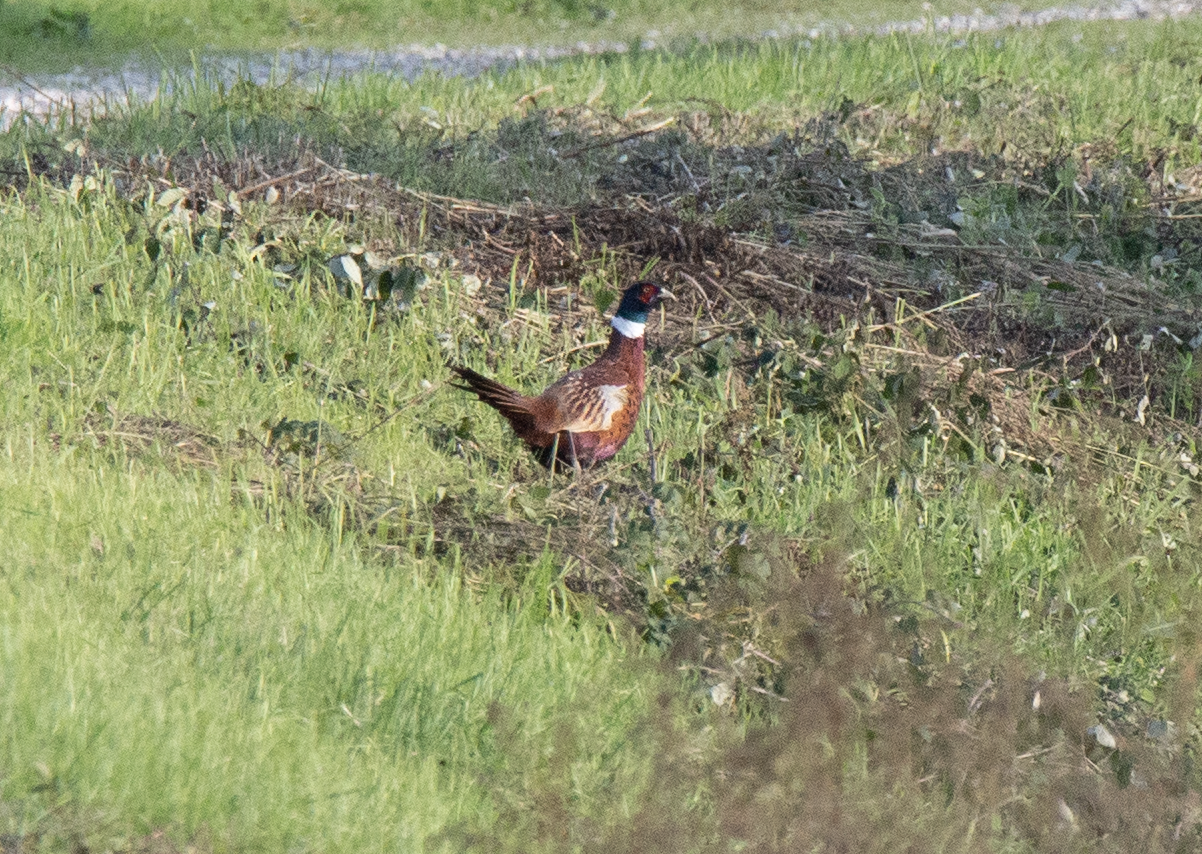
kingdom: Animalia
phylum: Chordata
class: Aves
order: Galliformes
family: Phasianidae
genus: Phasianus
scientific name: Phasianus colchicus
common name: Common pheasant
